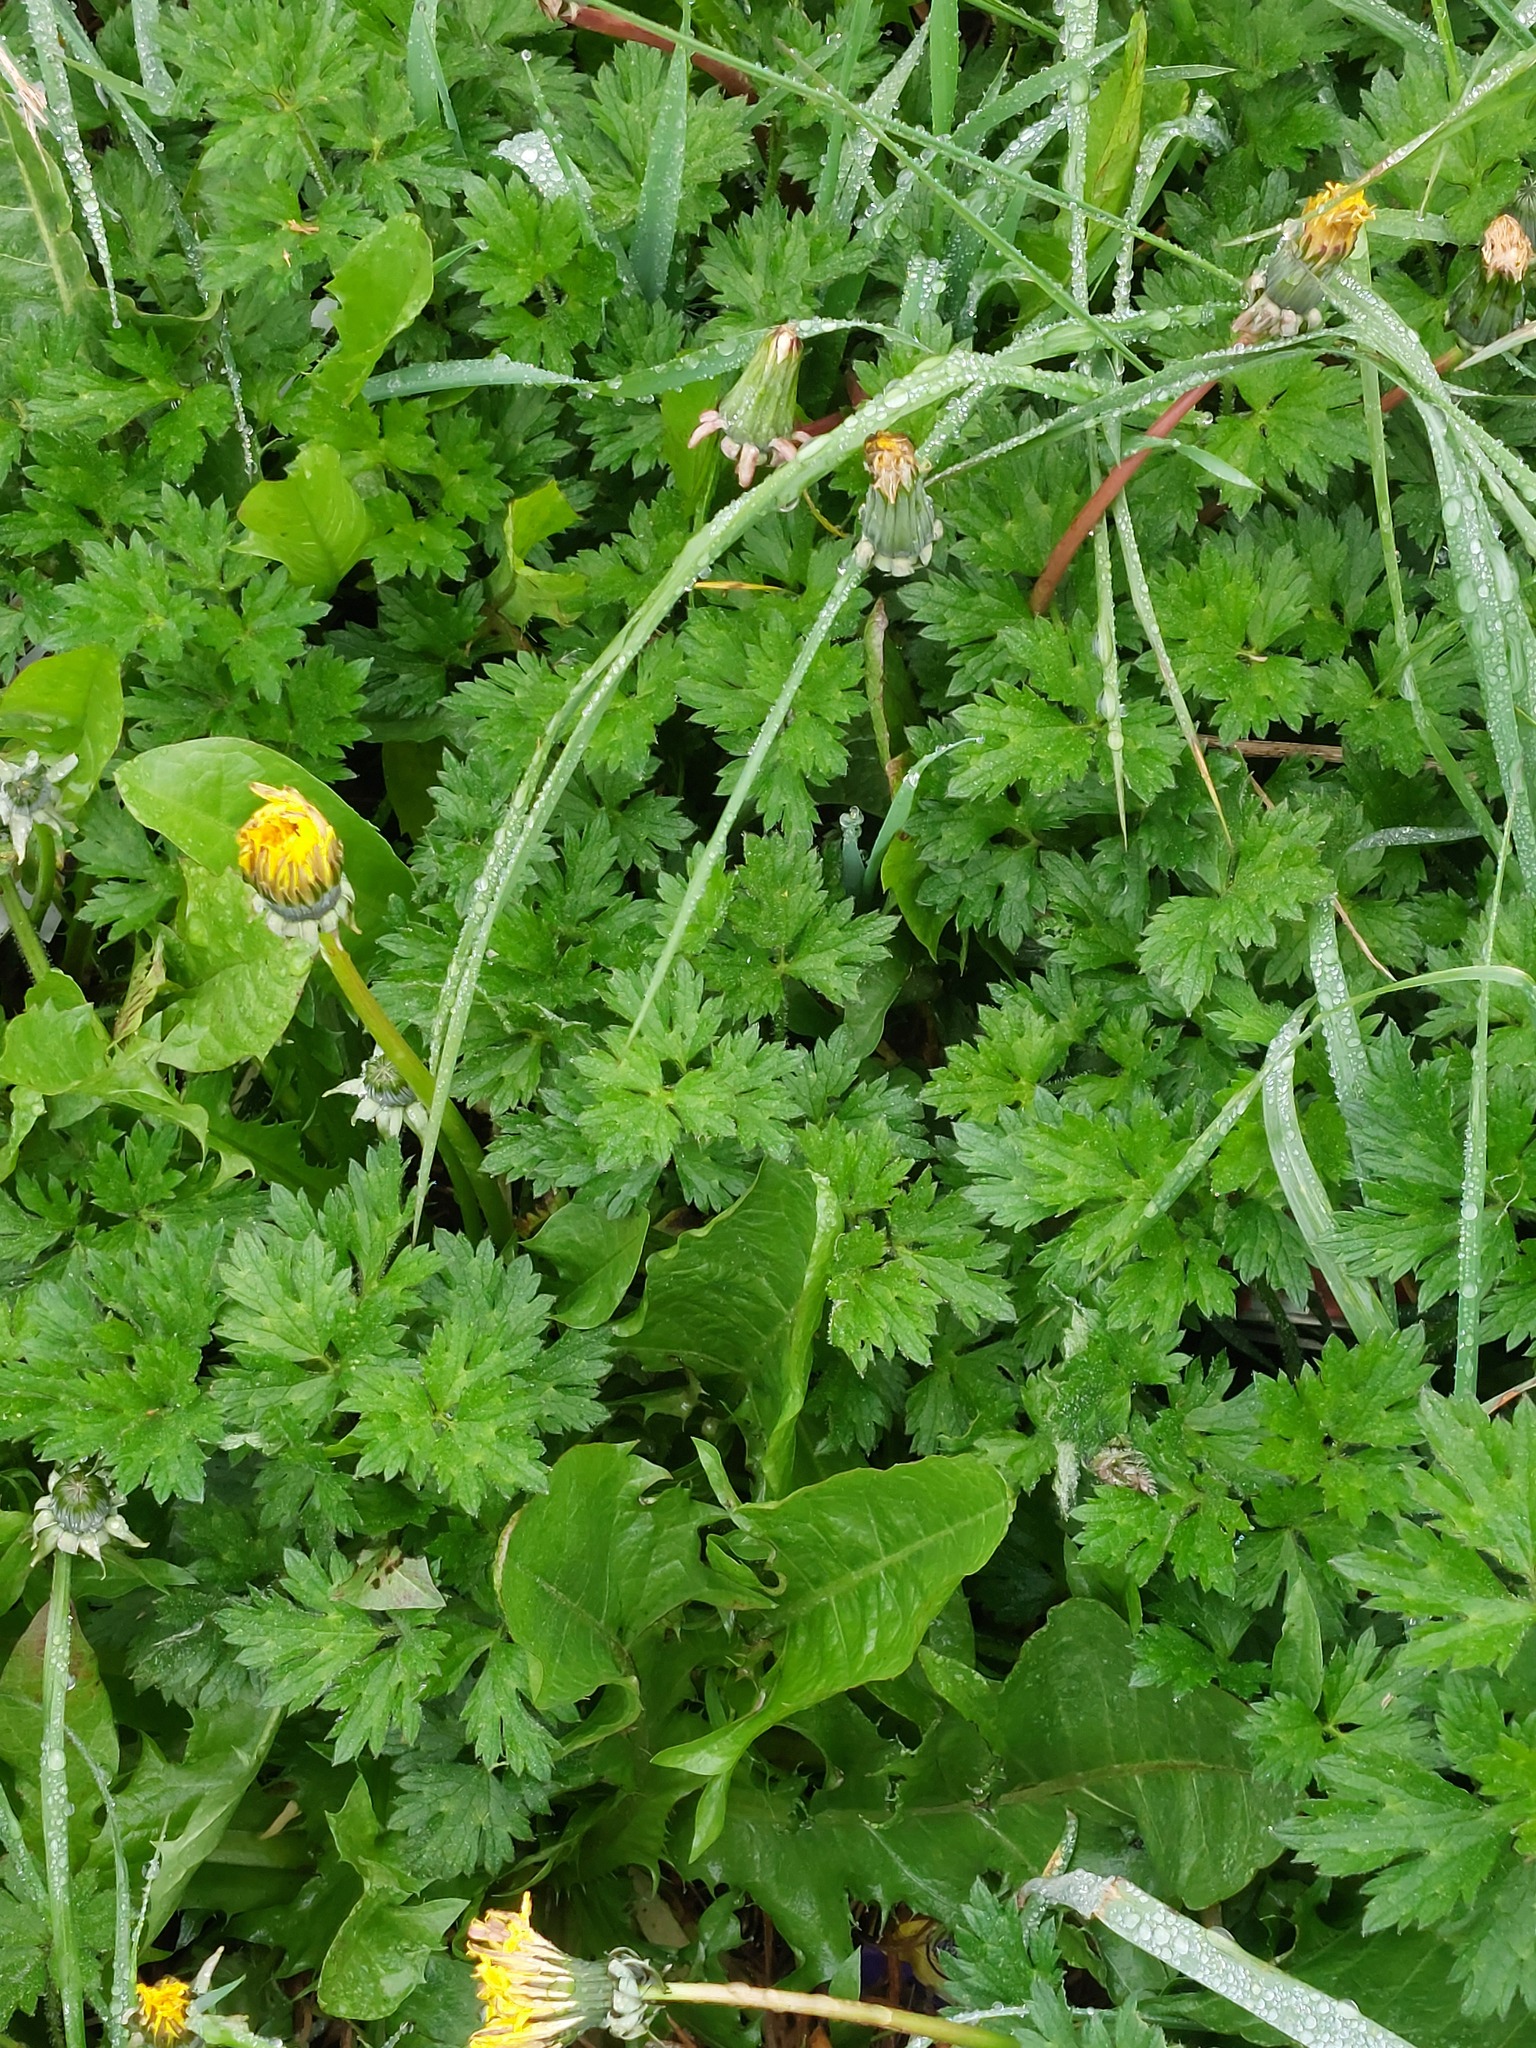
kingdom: Plantae
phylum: Tracheophyta
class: Magnoliopsida
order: Ranunculales
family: Ranunculaceae
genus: Ranunculus
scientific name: Ranunculus repens
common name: Creeping buttercup
